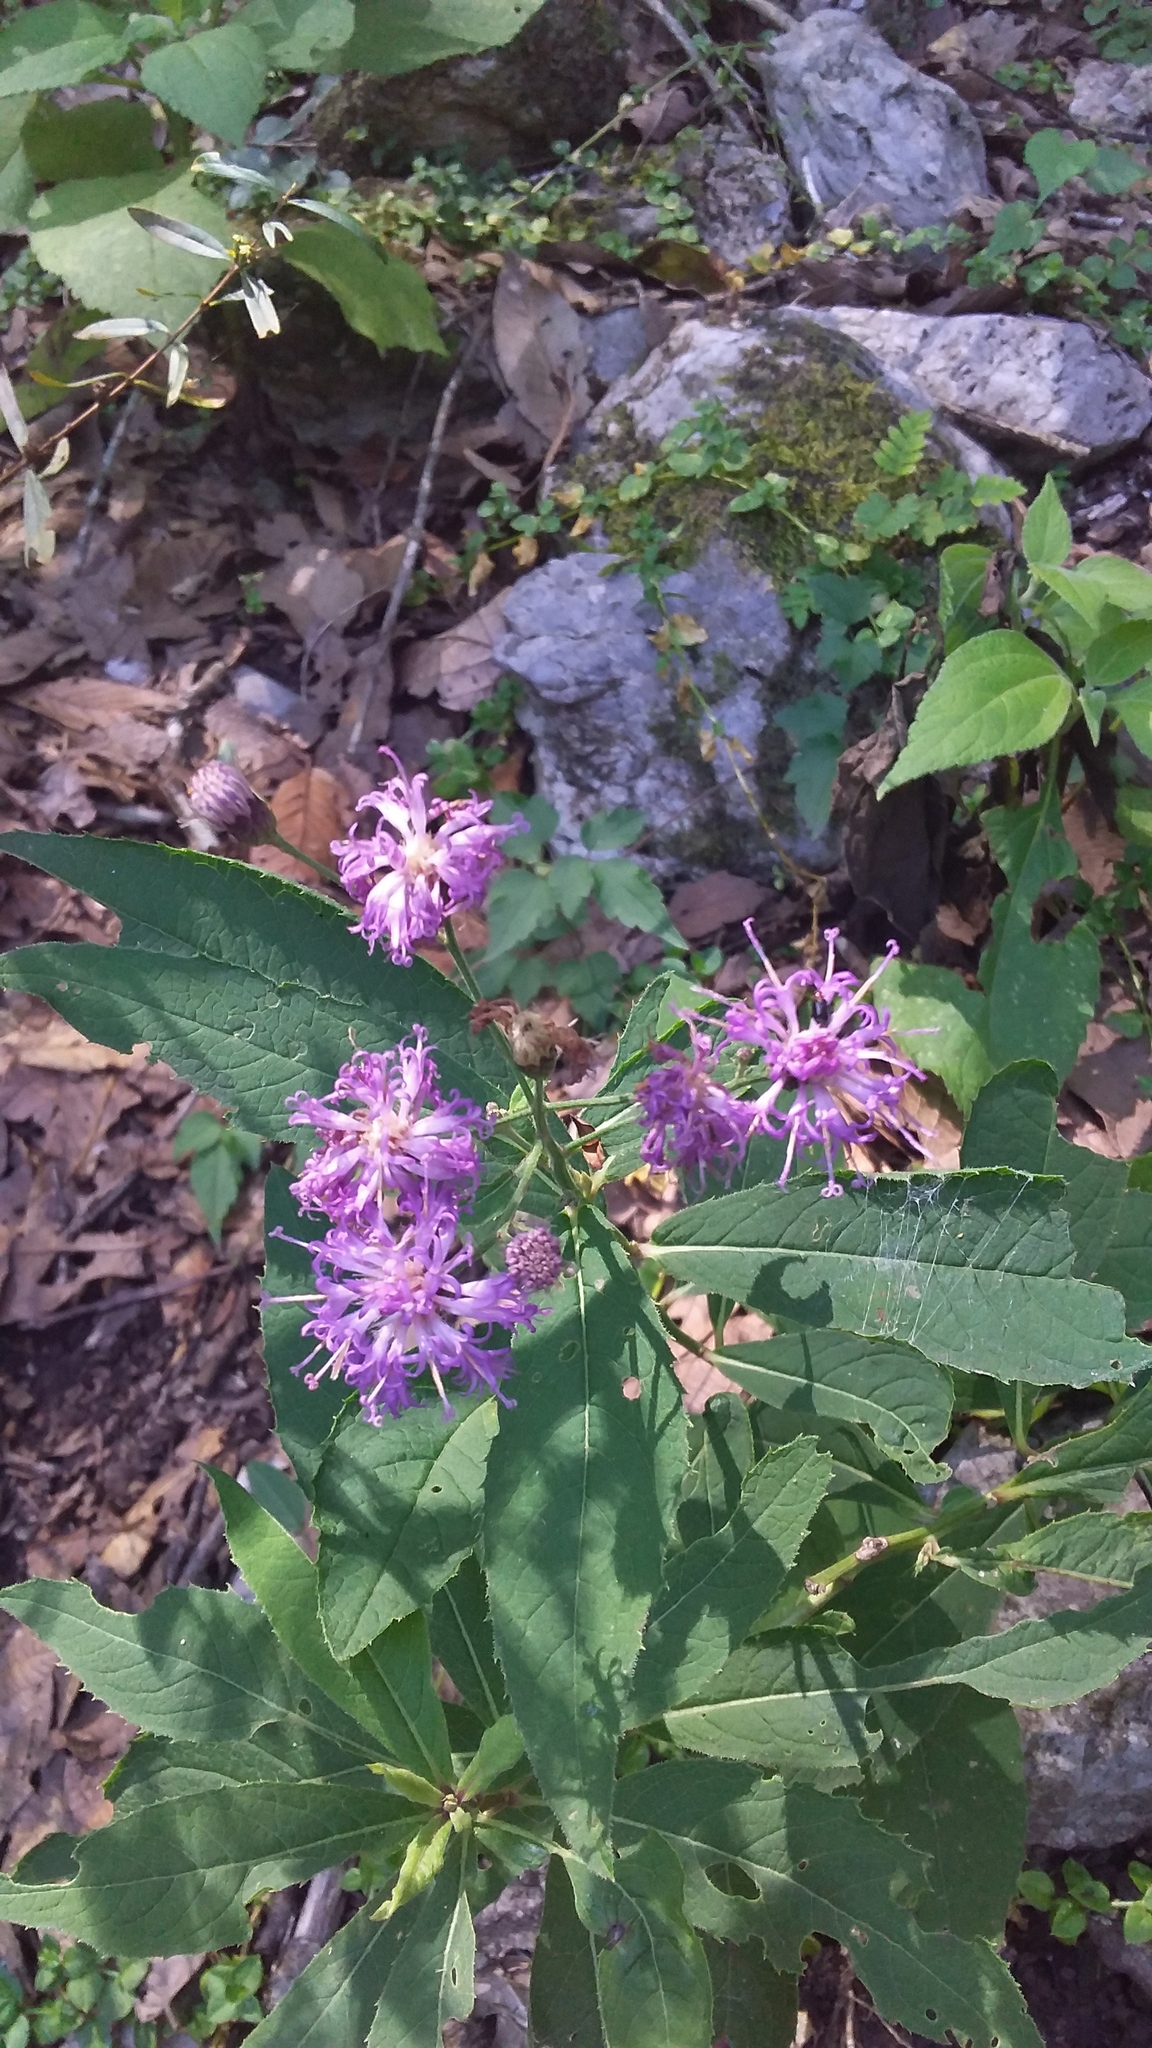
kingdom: Plantae
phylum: Tracheophyta
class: Magnoliopsida
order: Asterales
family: Asteraceae
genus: Vernonia
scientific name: Vernonia greggii
